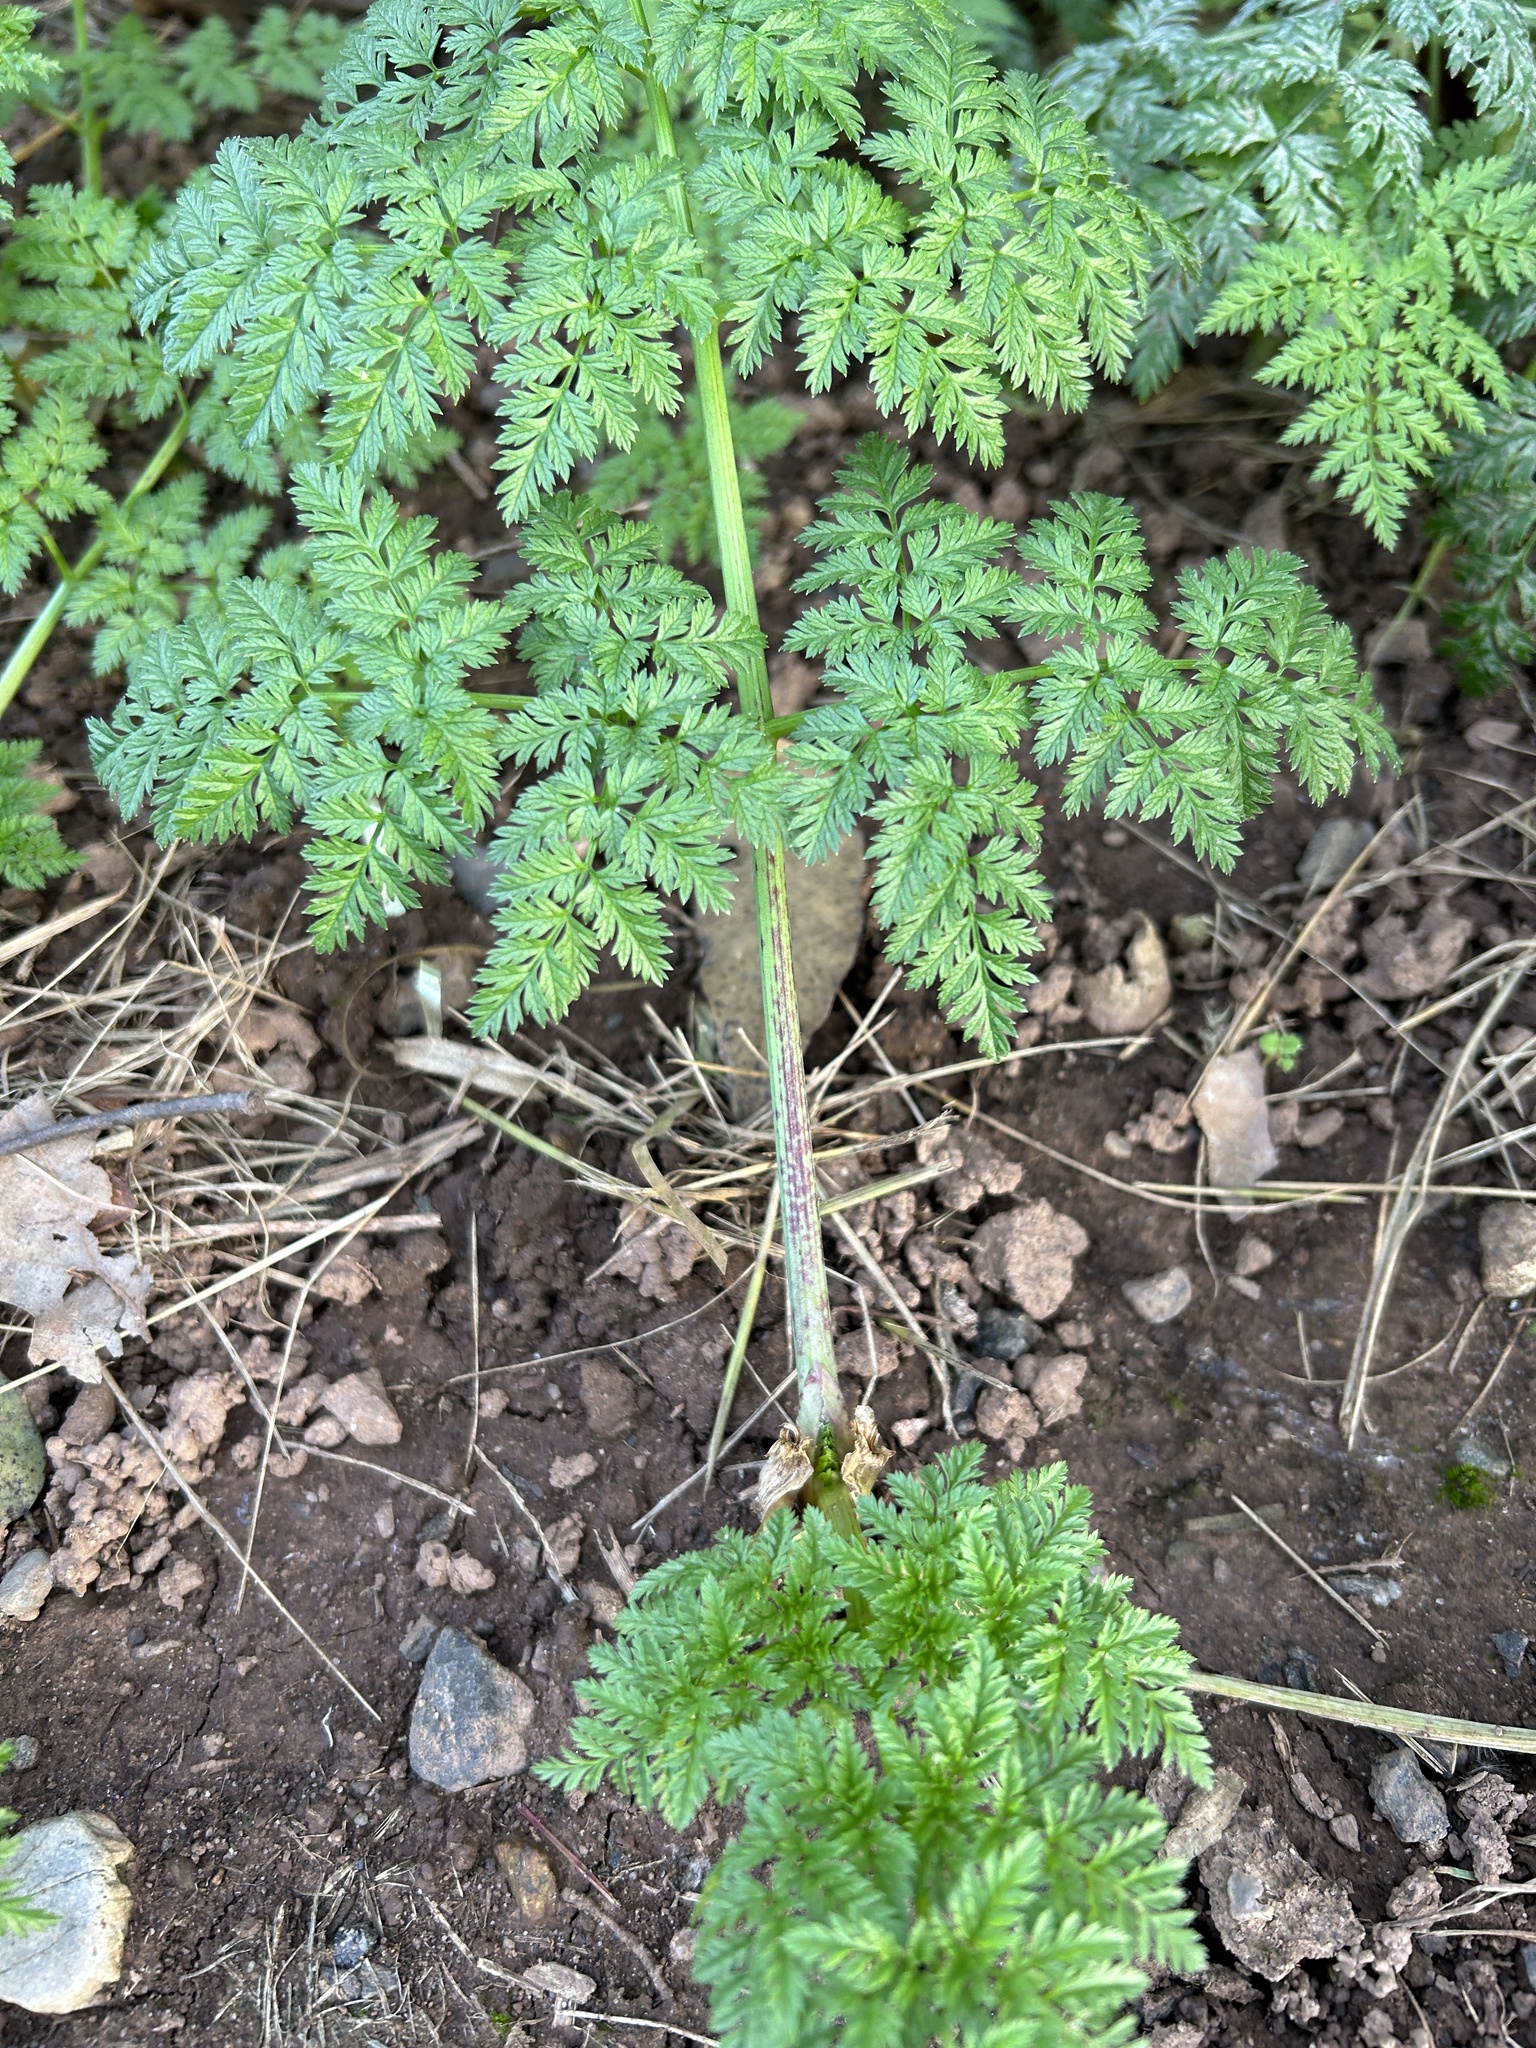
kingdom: Plantae
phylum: Tracheophyta
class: Magnoliopsida
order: Apiales
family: Apiaceae
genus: Conium
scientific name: Conium maculatum
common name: Hemlock
